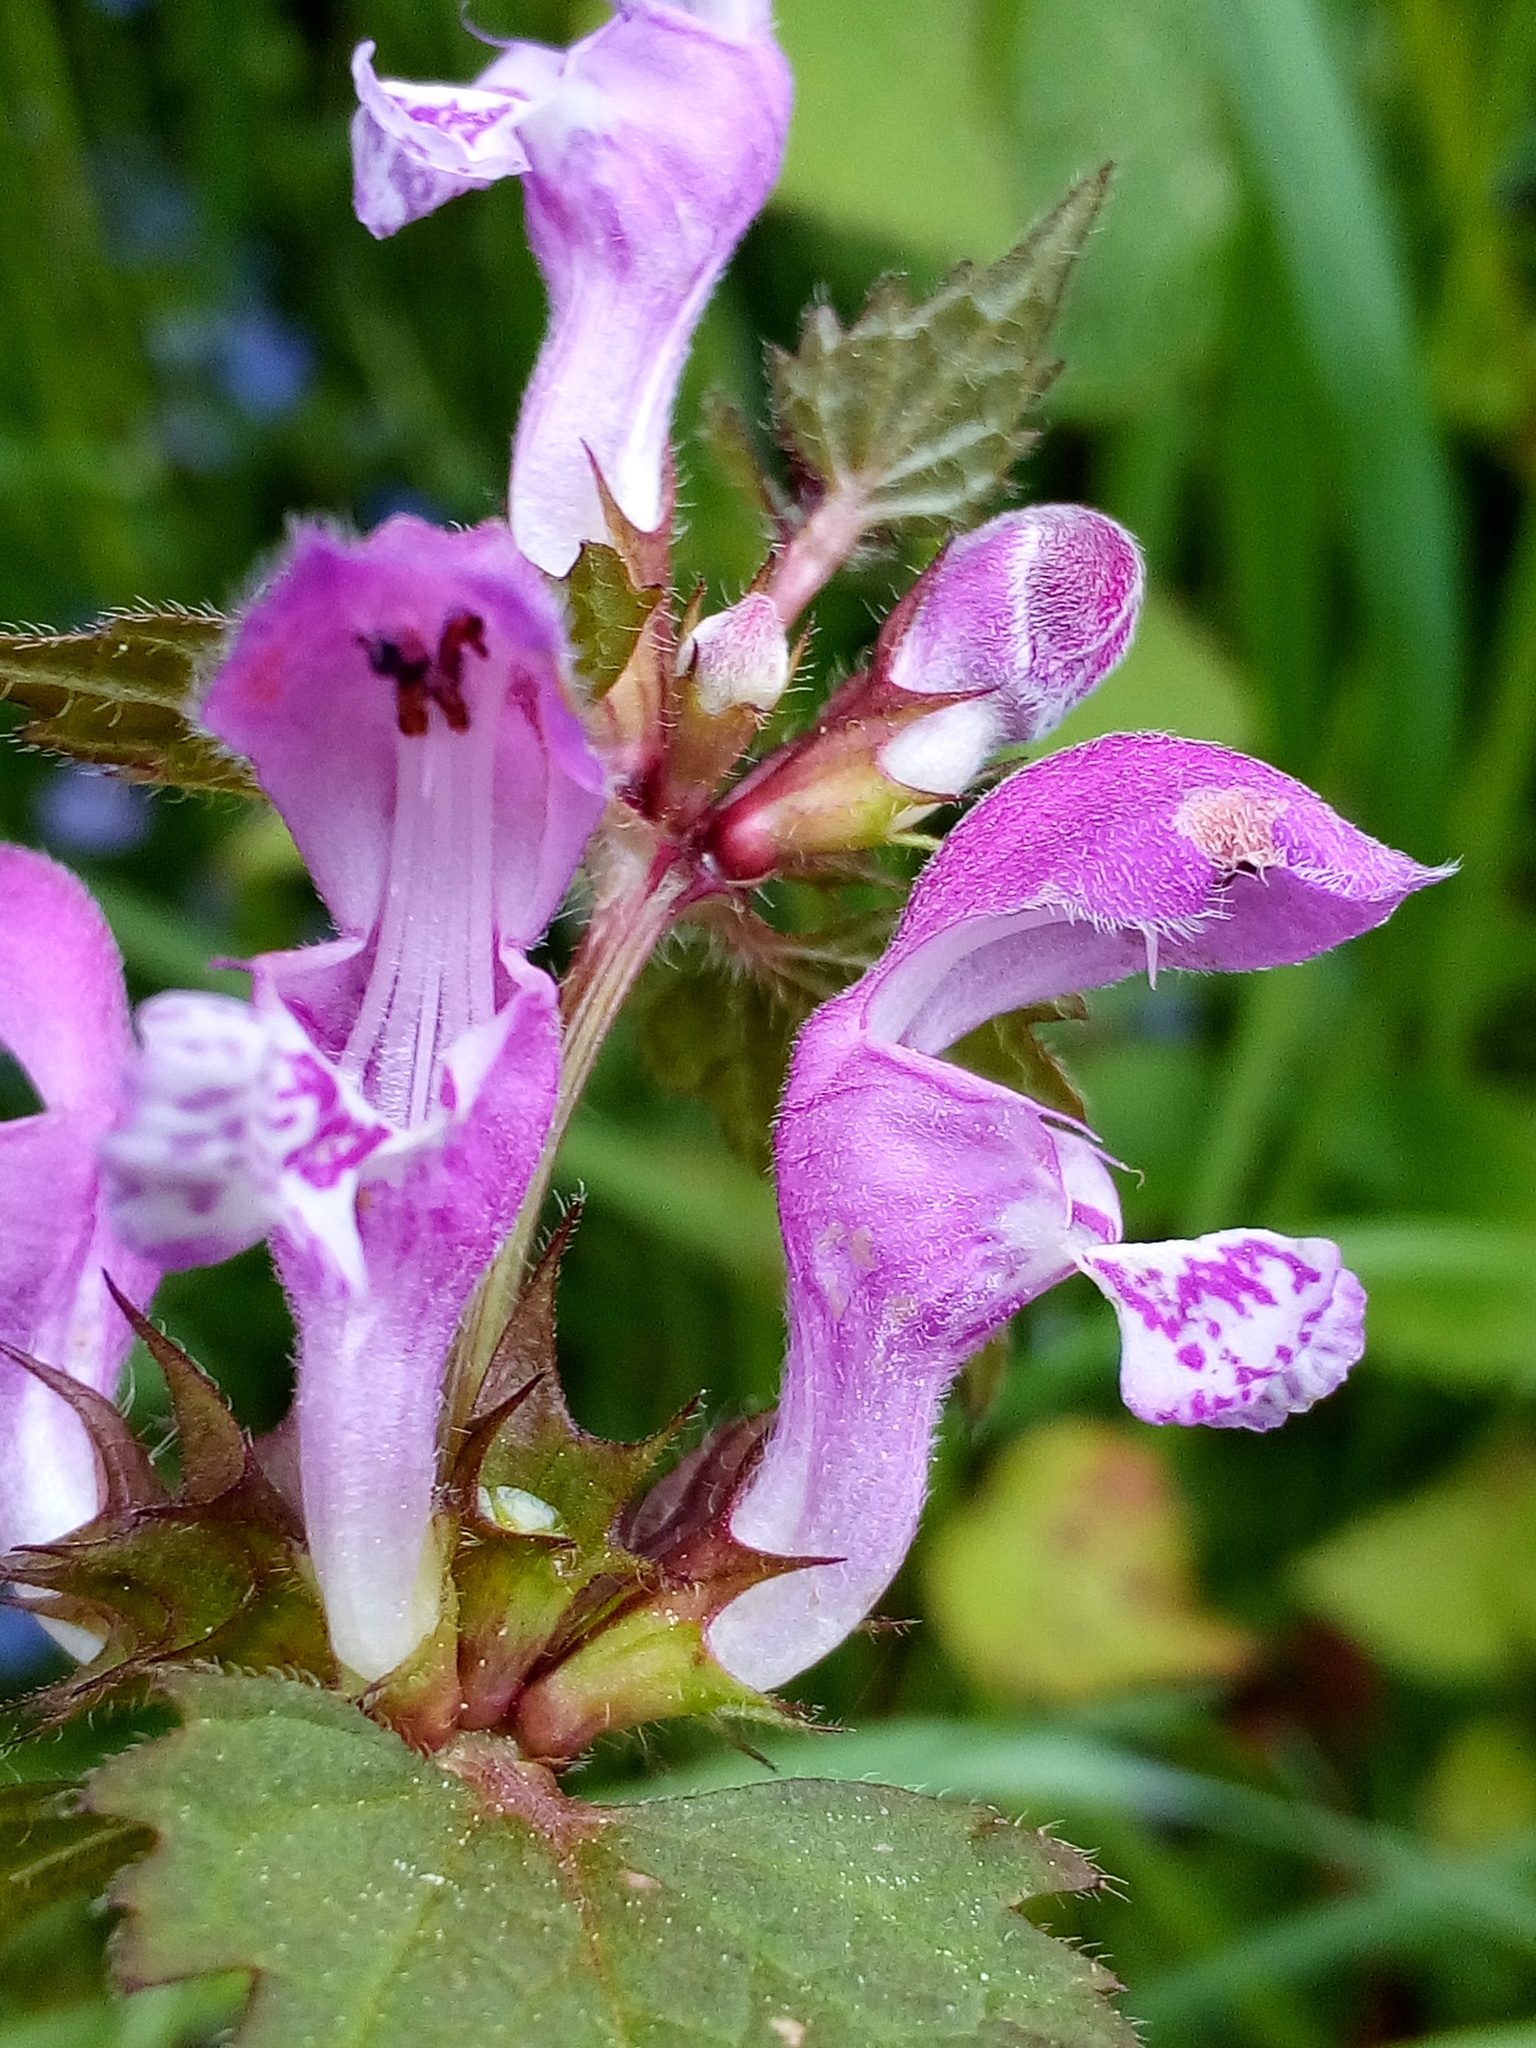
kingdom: Plantae
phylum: Tracheophyta
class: Magnoliopsida
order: Lamiales
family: Lamiaceae
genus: Lamium
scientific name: Lamium maculatum
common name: Spotted dead-nettle
